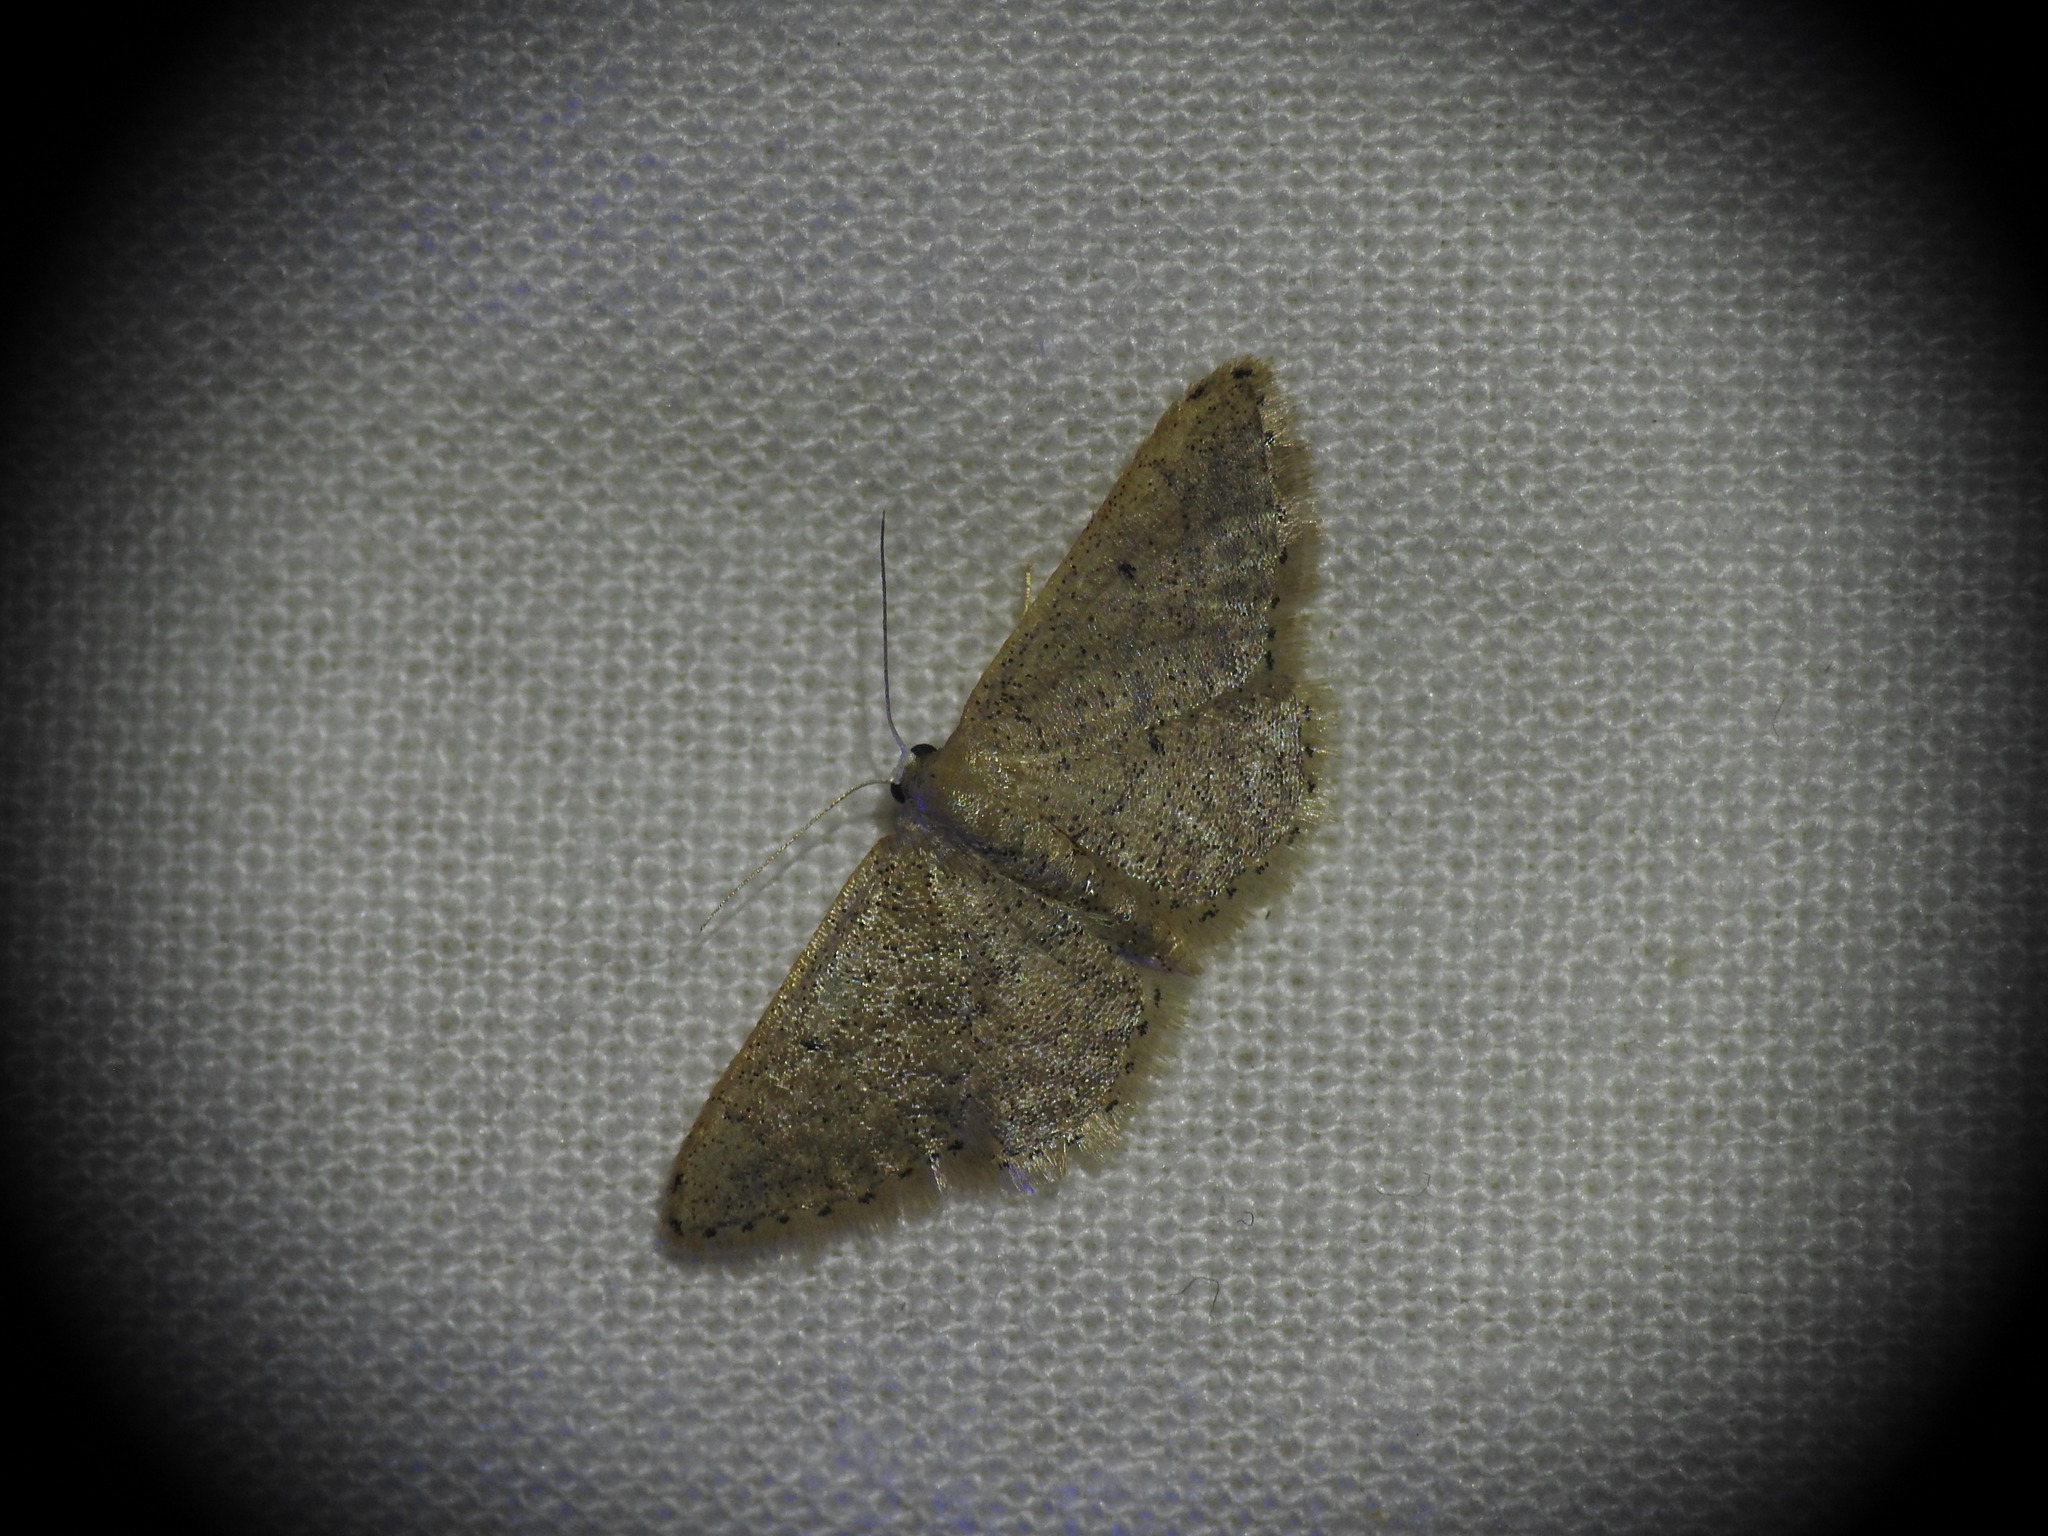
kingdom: Animalia
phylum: Arthropoda
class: Insecta
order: Lepidoptera
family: Geometridae
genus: Idaea
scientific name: Idaea obsoletaria
